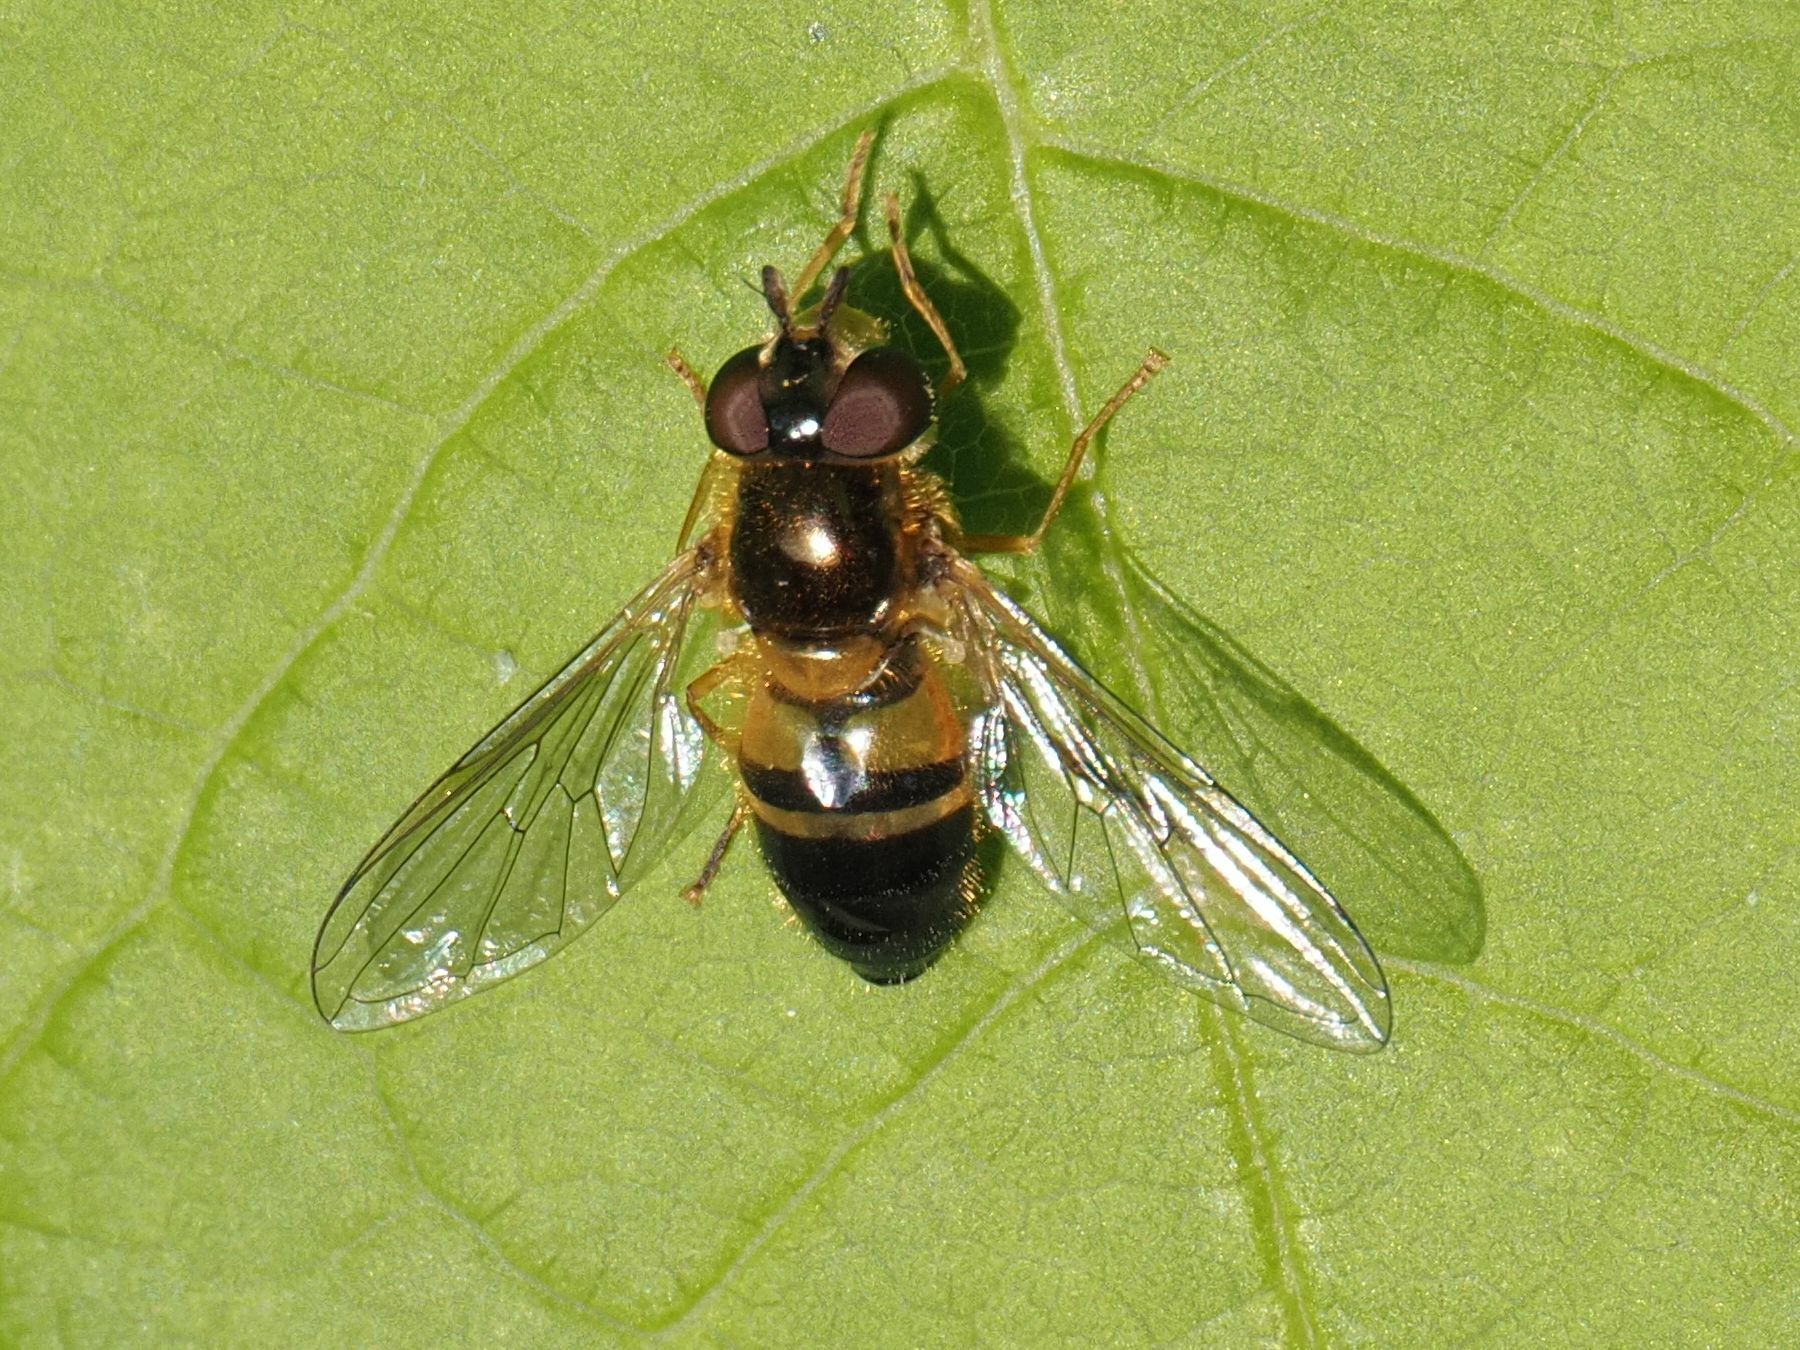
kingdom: Animalia
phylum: Arthropoda
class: Insecta
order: Diptera
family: Syrphidae
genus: Epistrophe
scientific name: Epistrophe eligans
